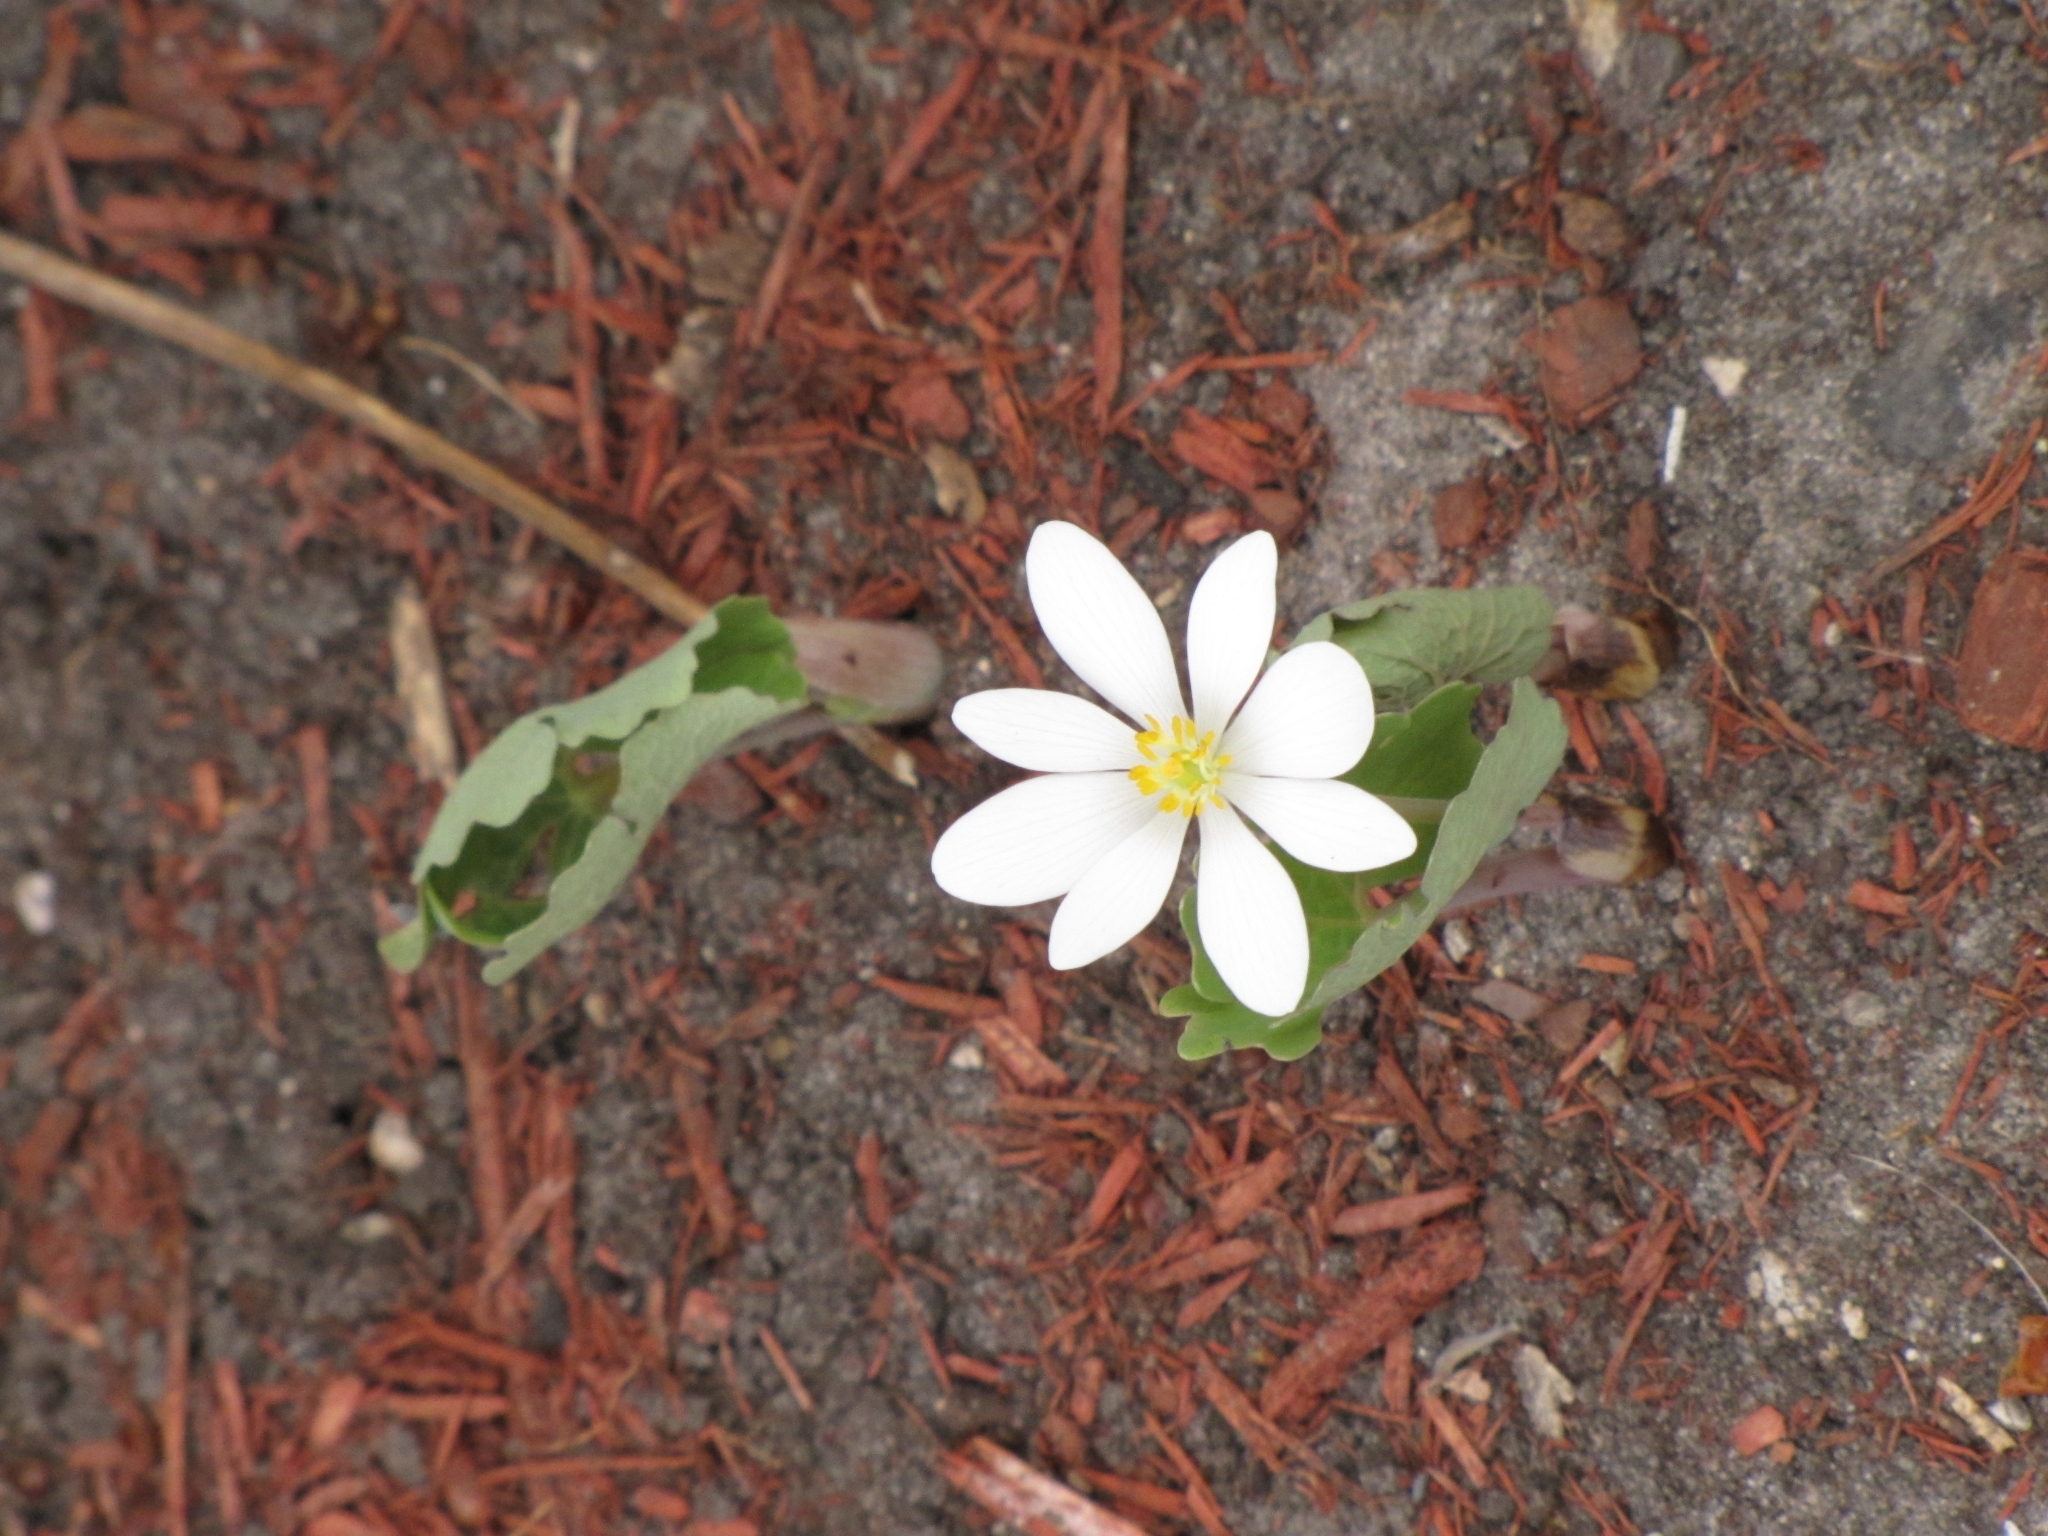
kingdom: Plantae
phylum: Tracheophyta
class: Magnoliopsida
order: Ranunculales
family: Papaveraceae
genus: Sanguinaria
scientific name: Sanguinaria canadensis
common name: Bloodroot
